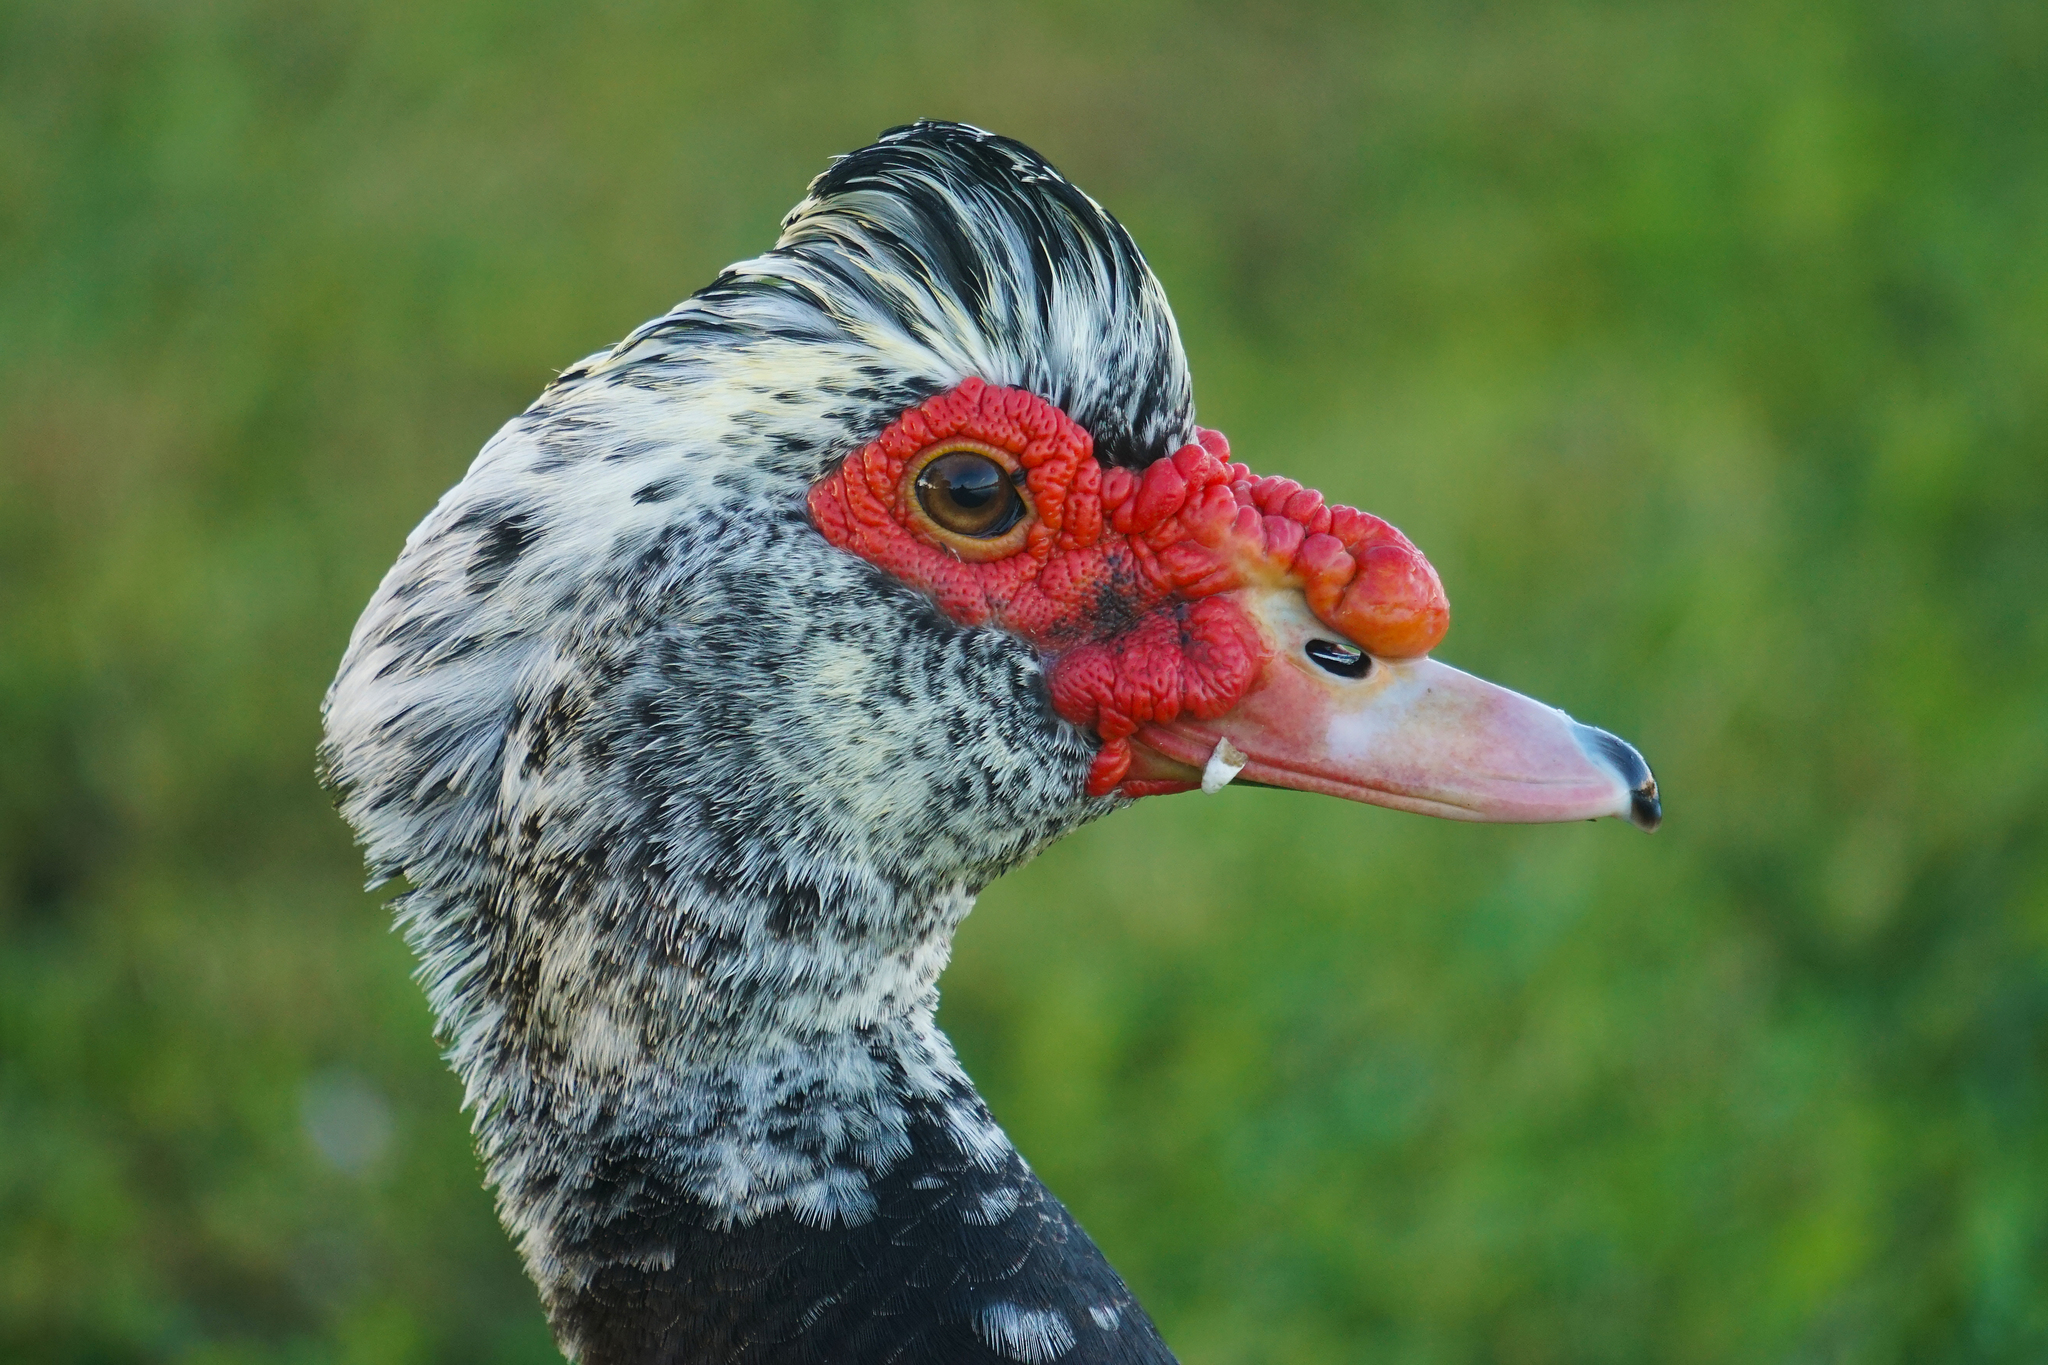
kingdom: Animalia
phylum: Chordata
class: Aves
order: Anseriformes
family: Anatidae
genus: Cairina
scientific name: Cairina moschata
